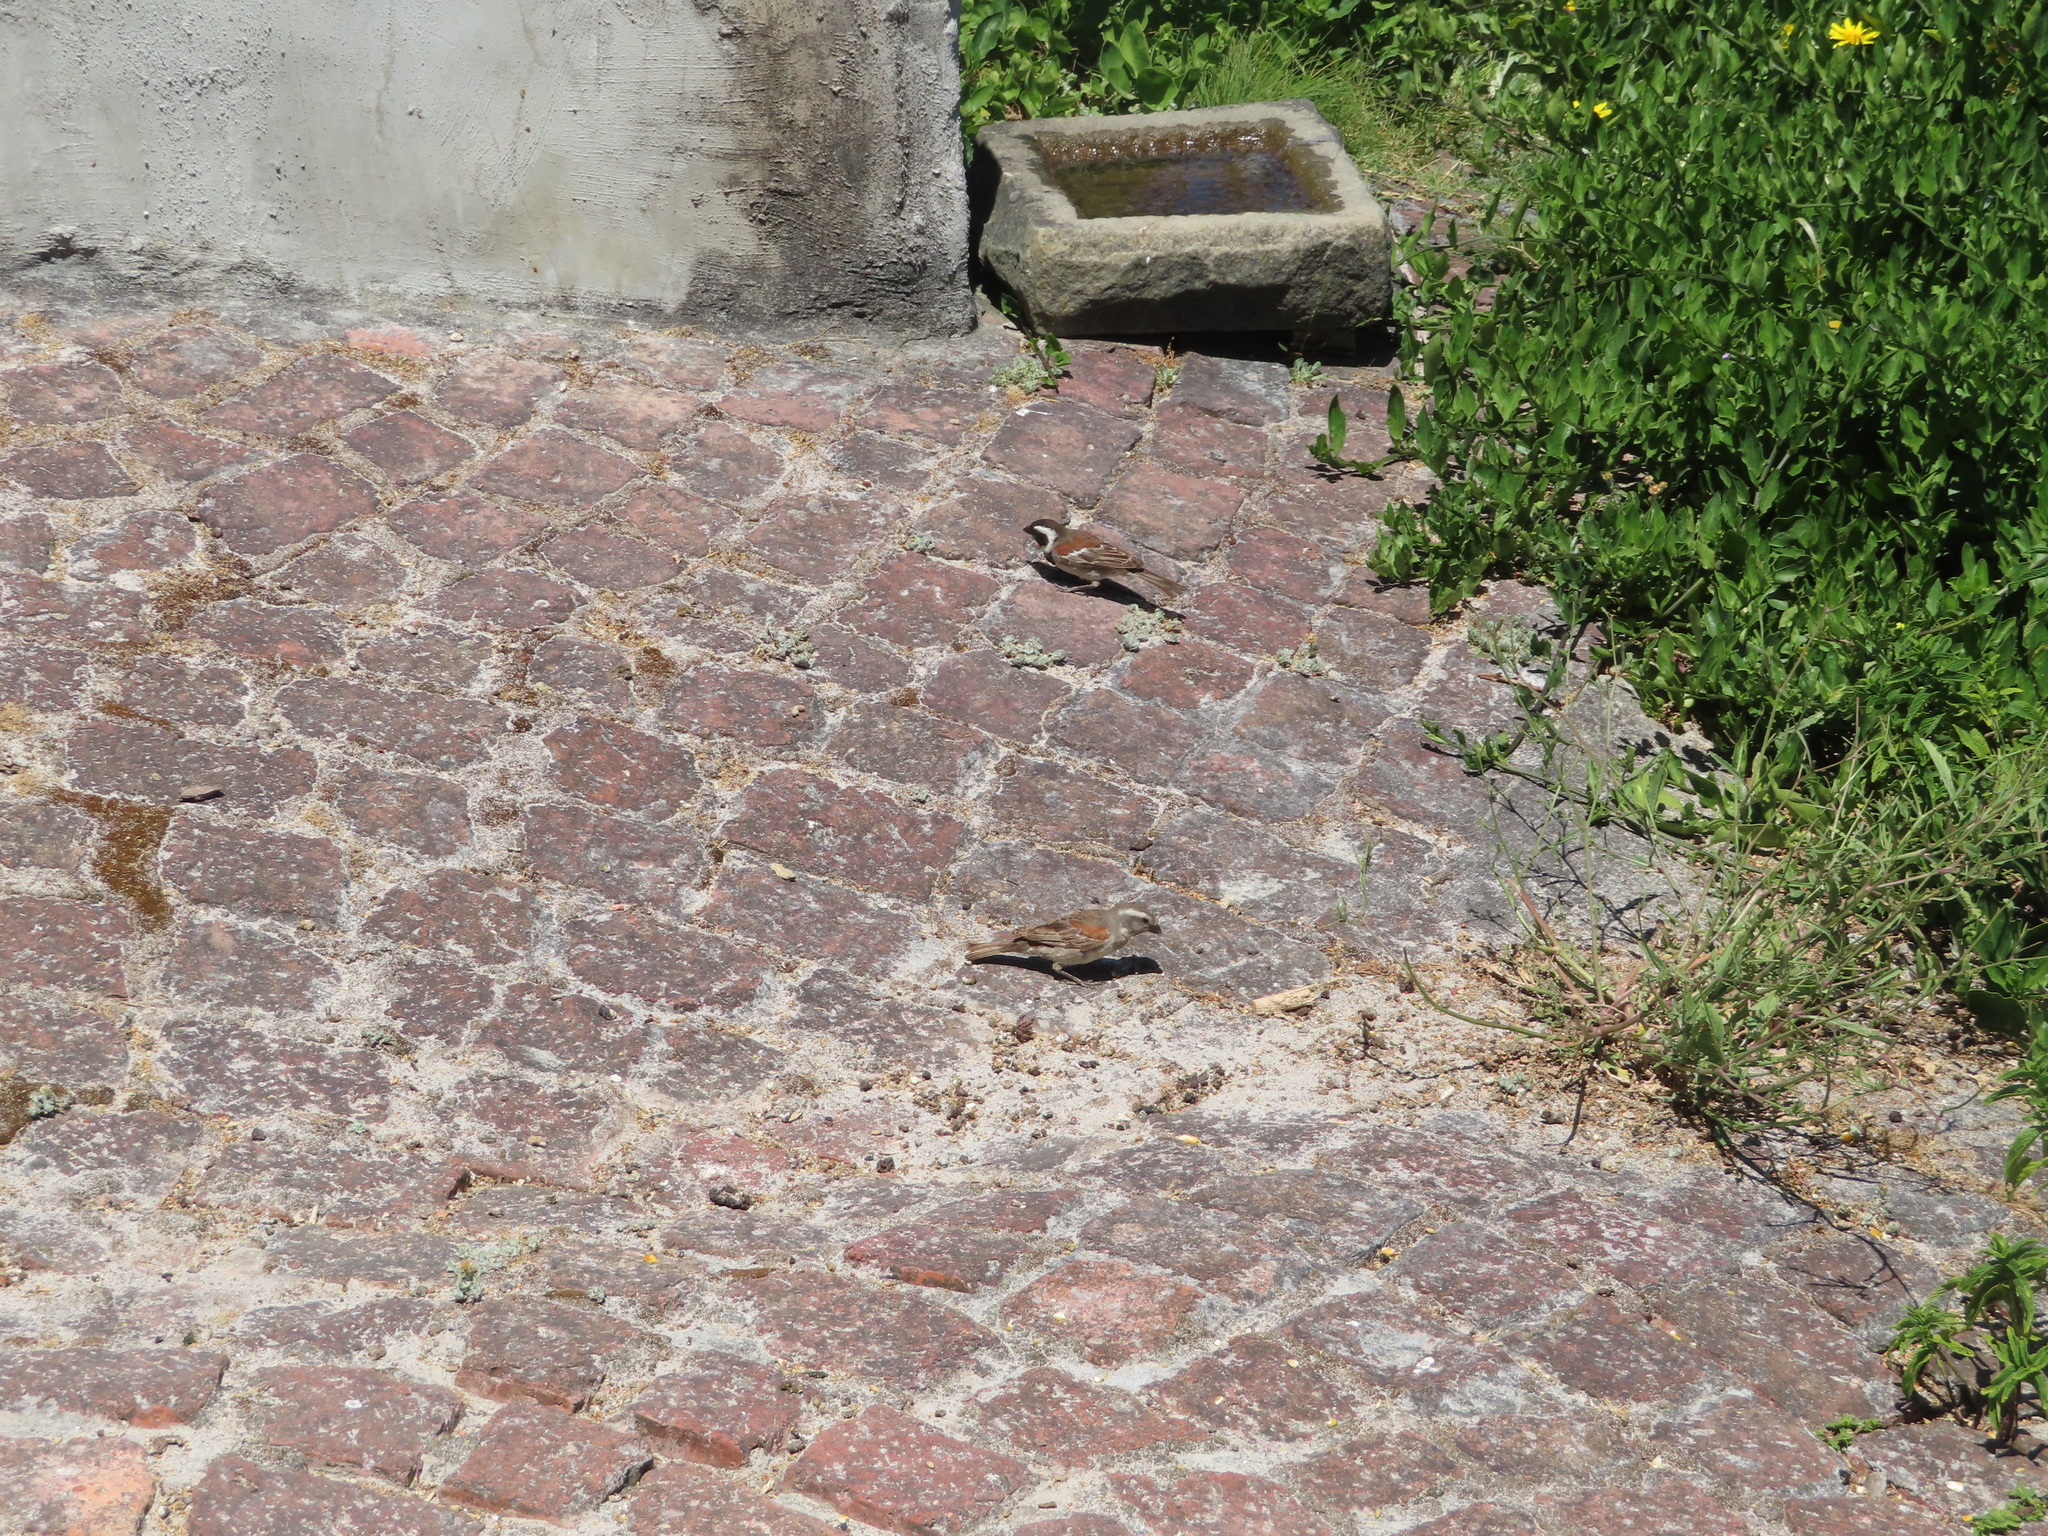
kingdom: Animalia
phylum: Chordata
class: Aves
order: Passeriformes
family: Passeridae
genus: Passer
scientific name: Passer melanurus
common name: Cape sparrow
